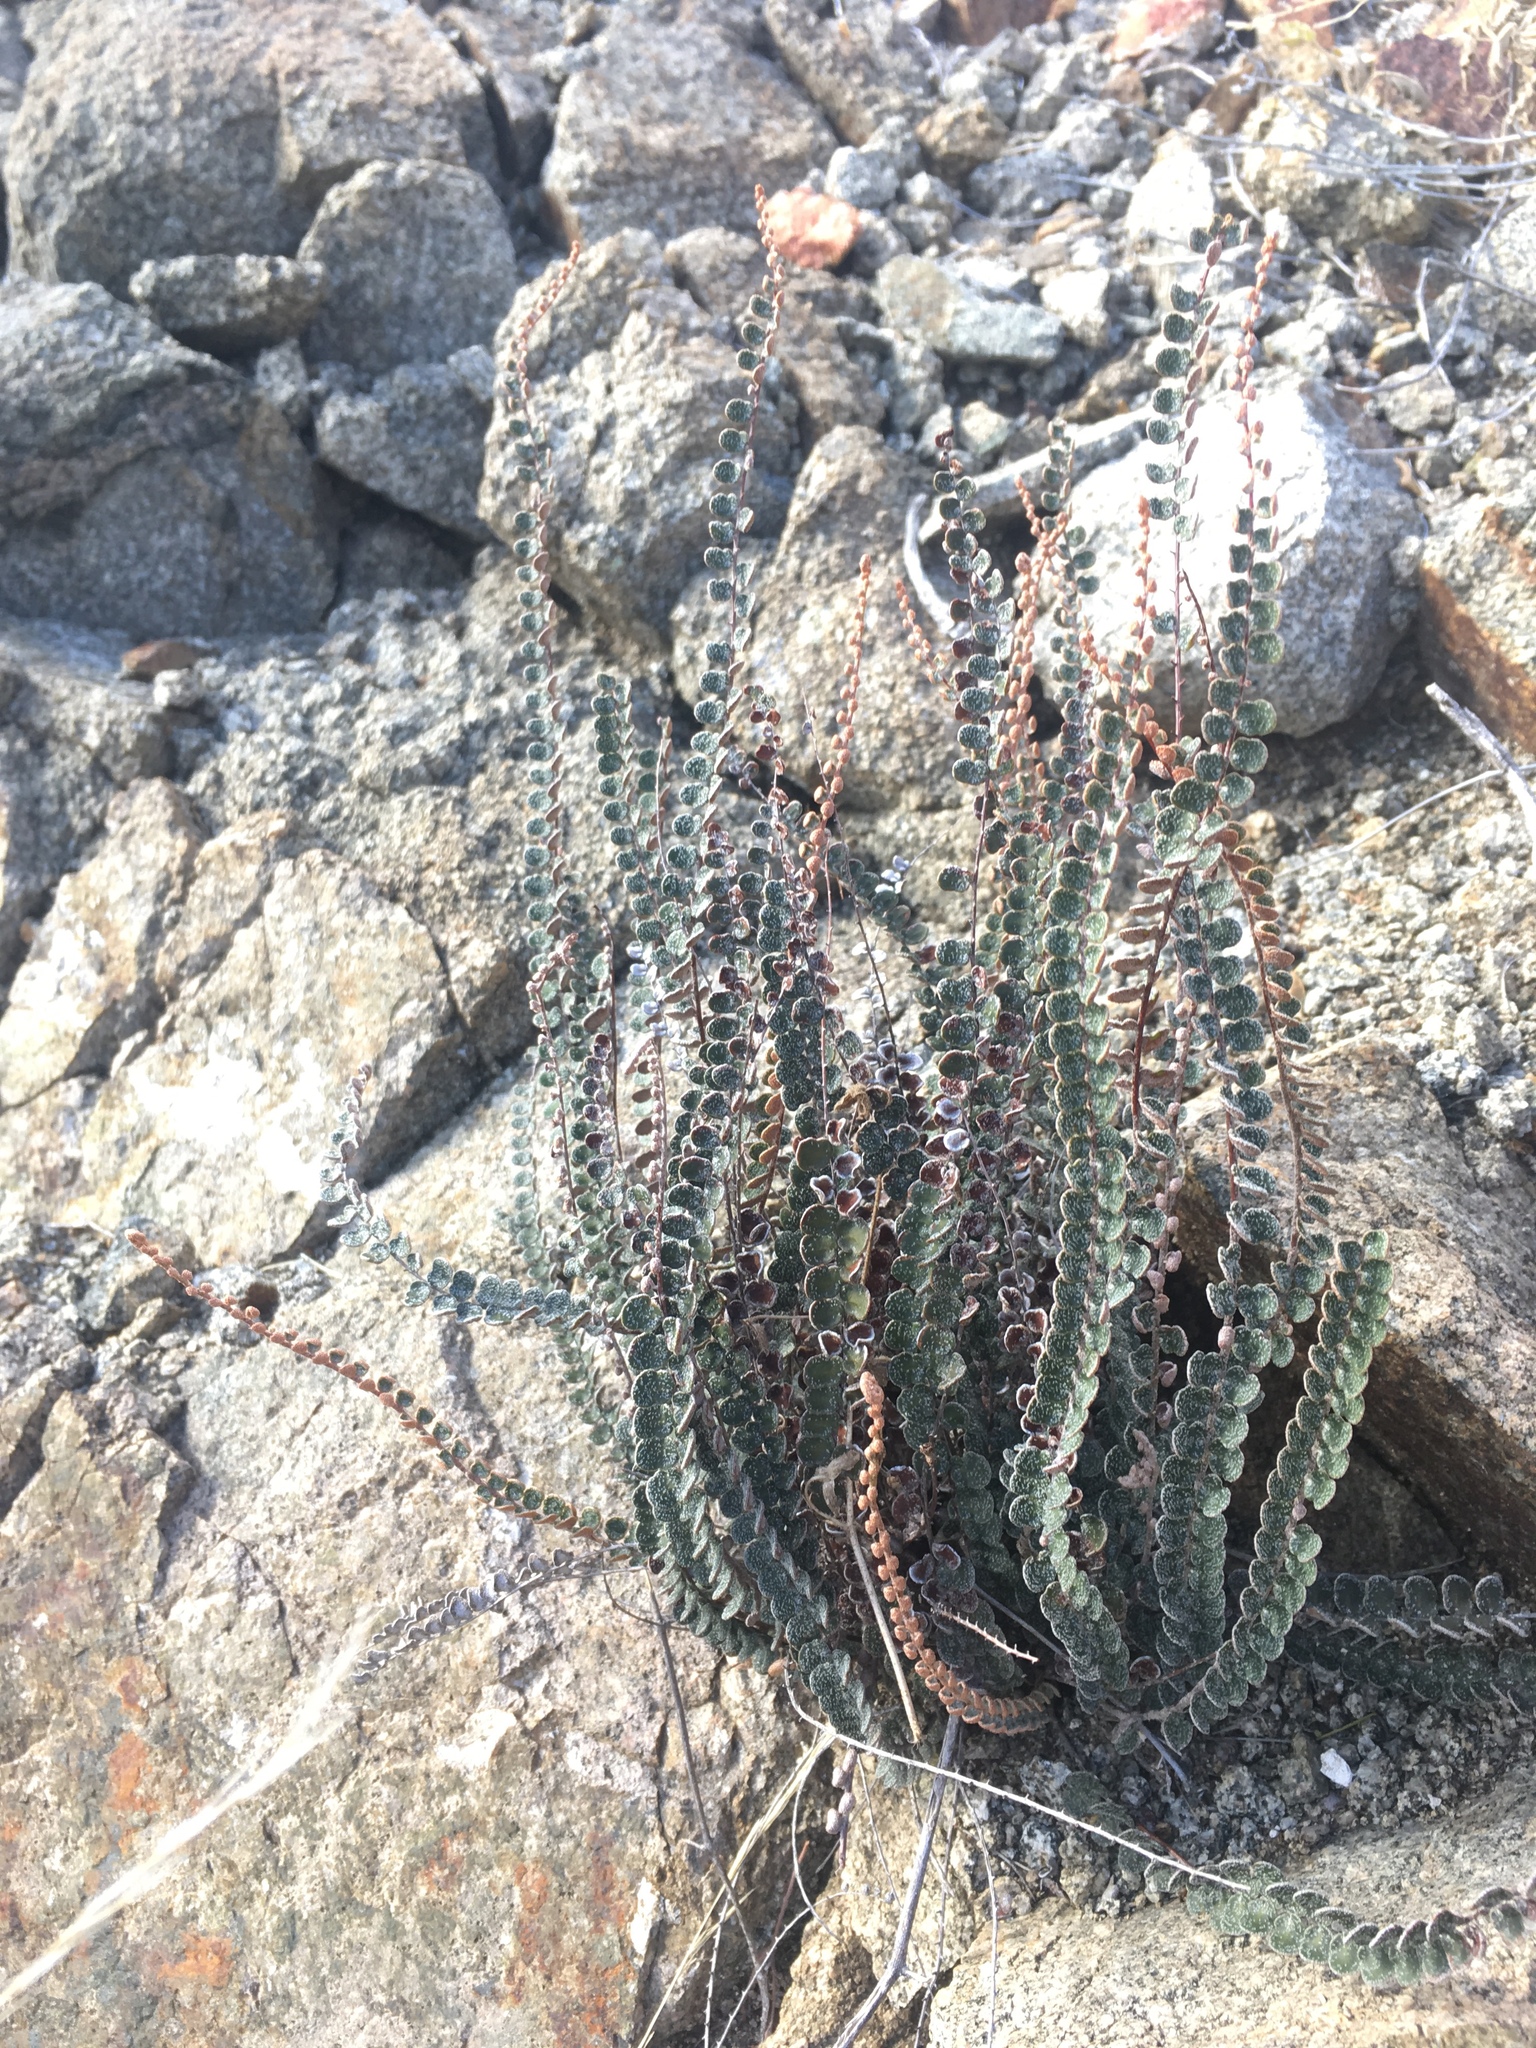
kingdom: Plantae
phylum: Tracheophyta
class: Polypodiopsida
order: Polypodiales
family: Pteridaceae
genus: Astrolepis
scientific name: Astrolepis cochisensis
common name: Scaly cloak fern
